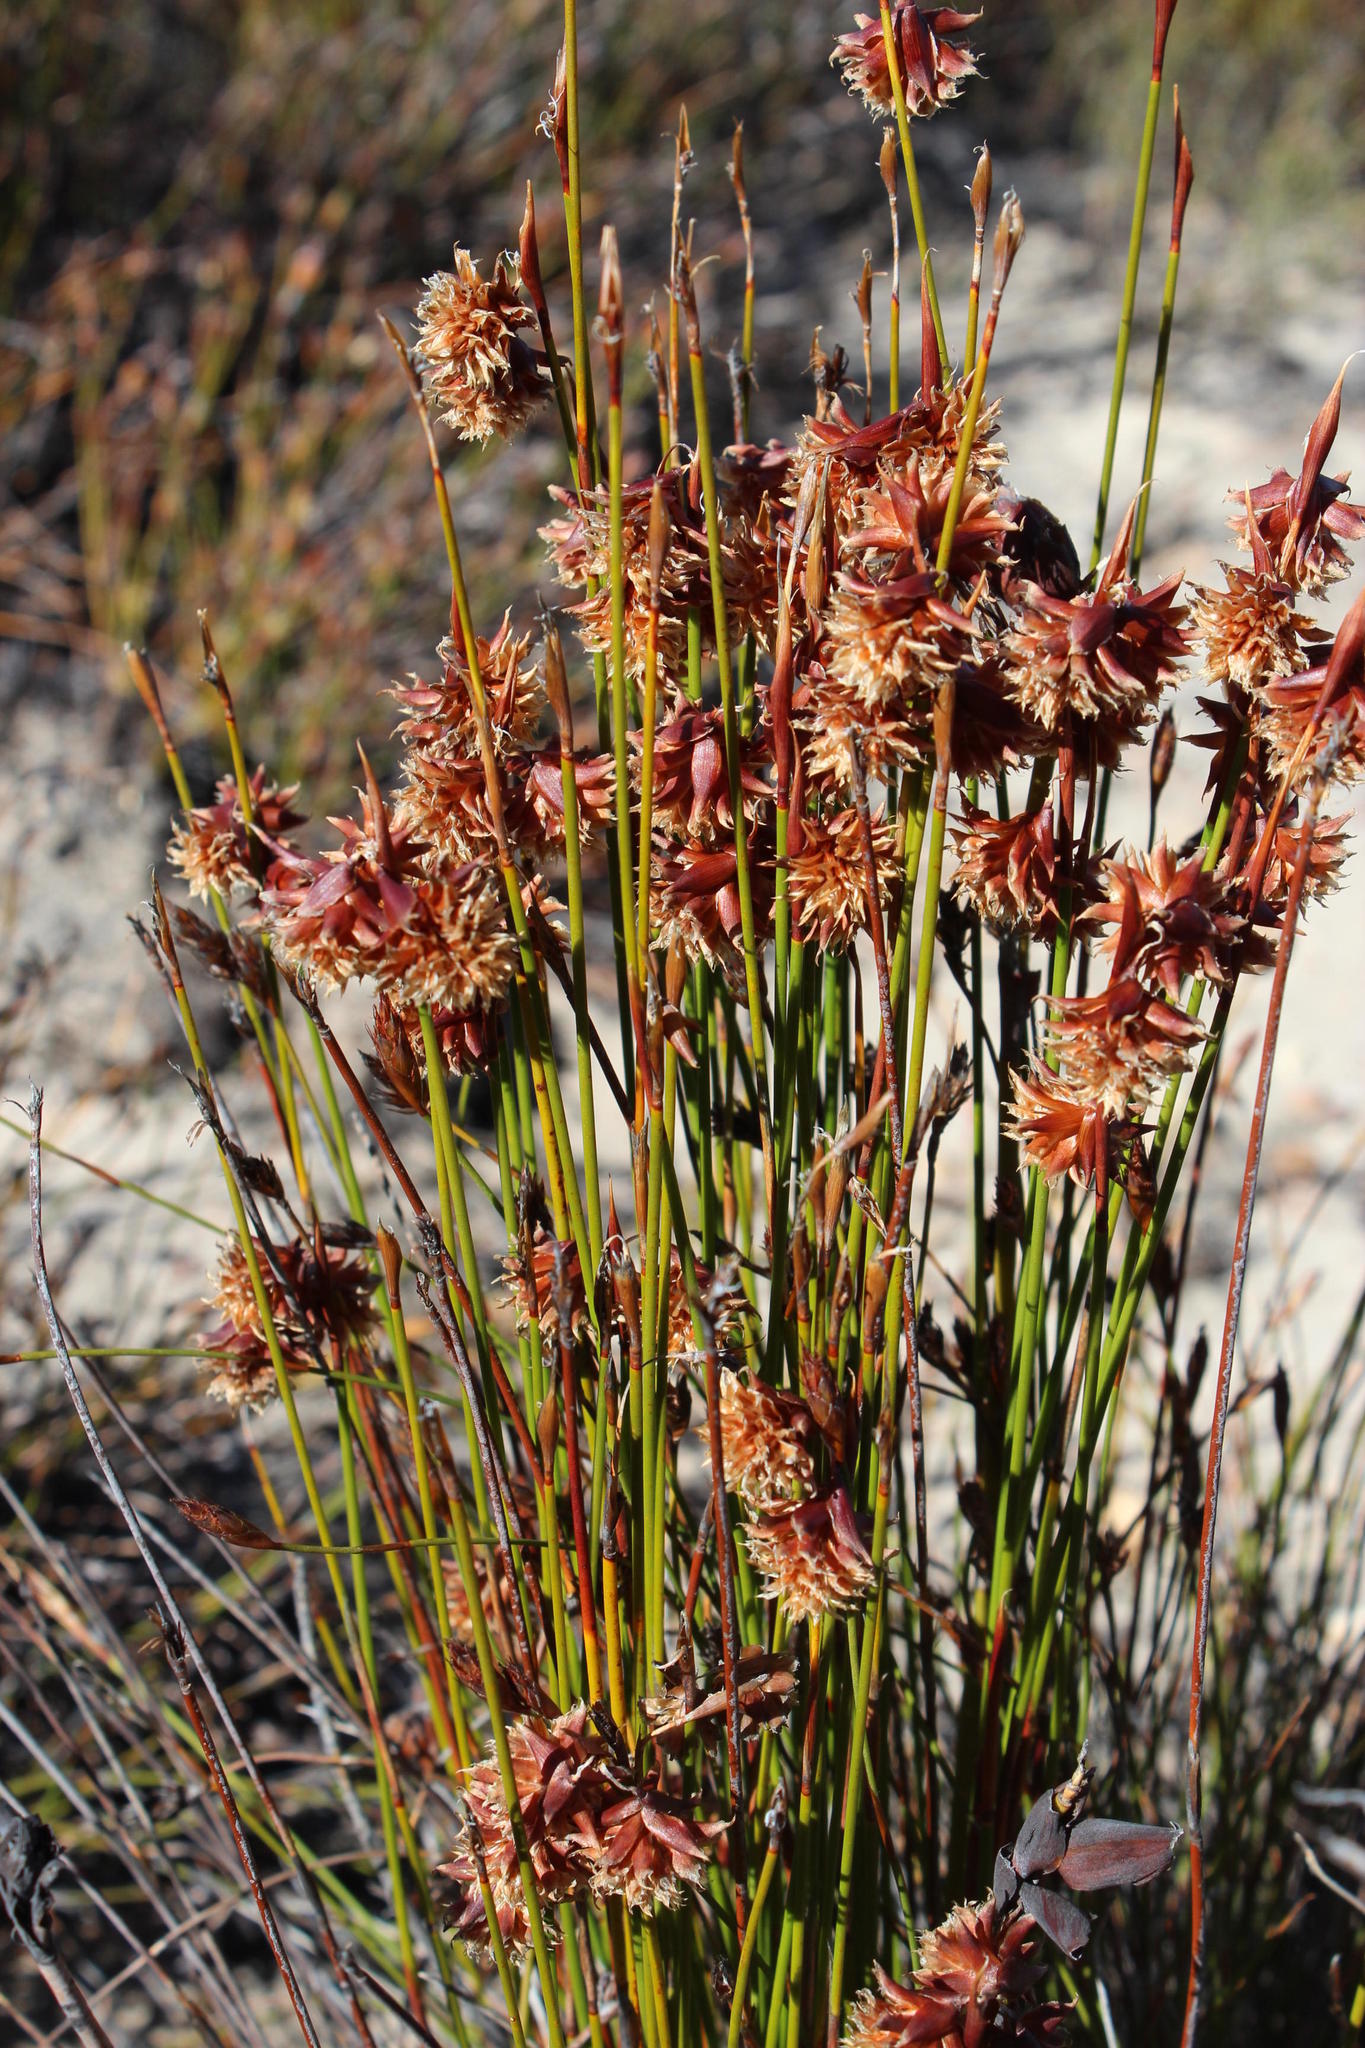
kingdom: Plantae
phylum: Tracheophyta
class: Liliopsida
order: Poales
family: Restionaceae
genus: Staberoha
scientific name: Staberoha distachyos
